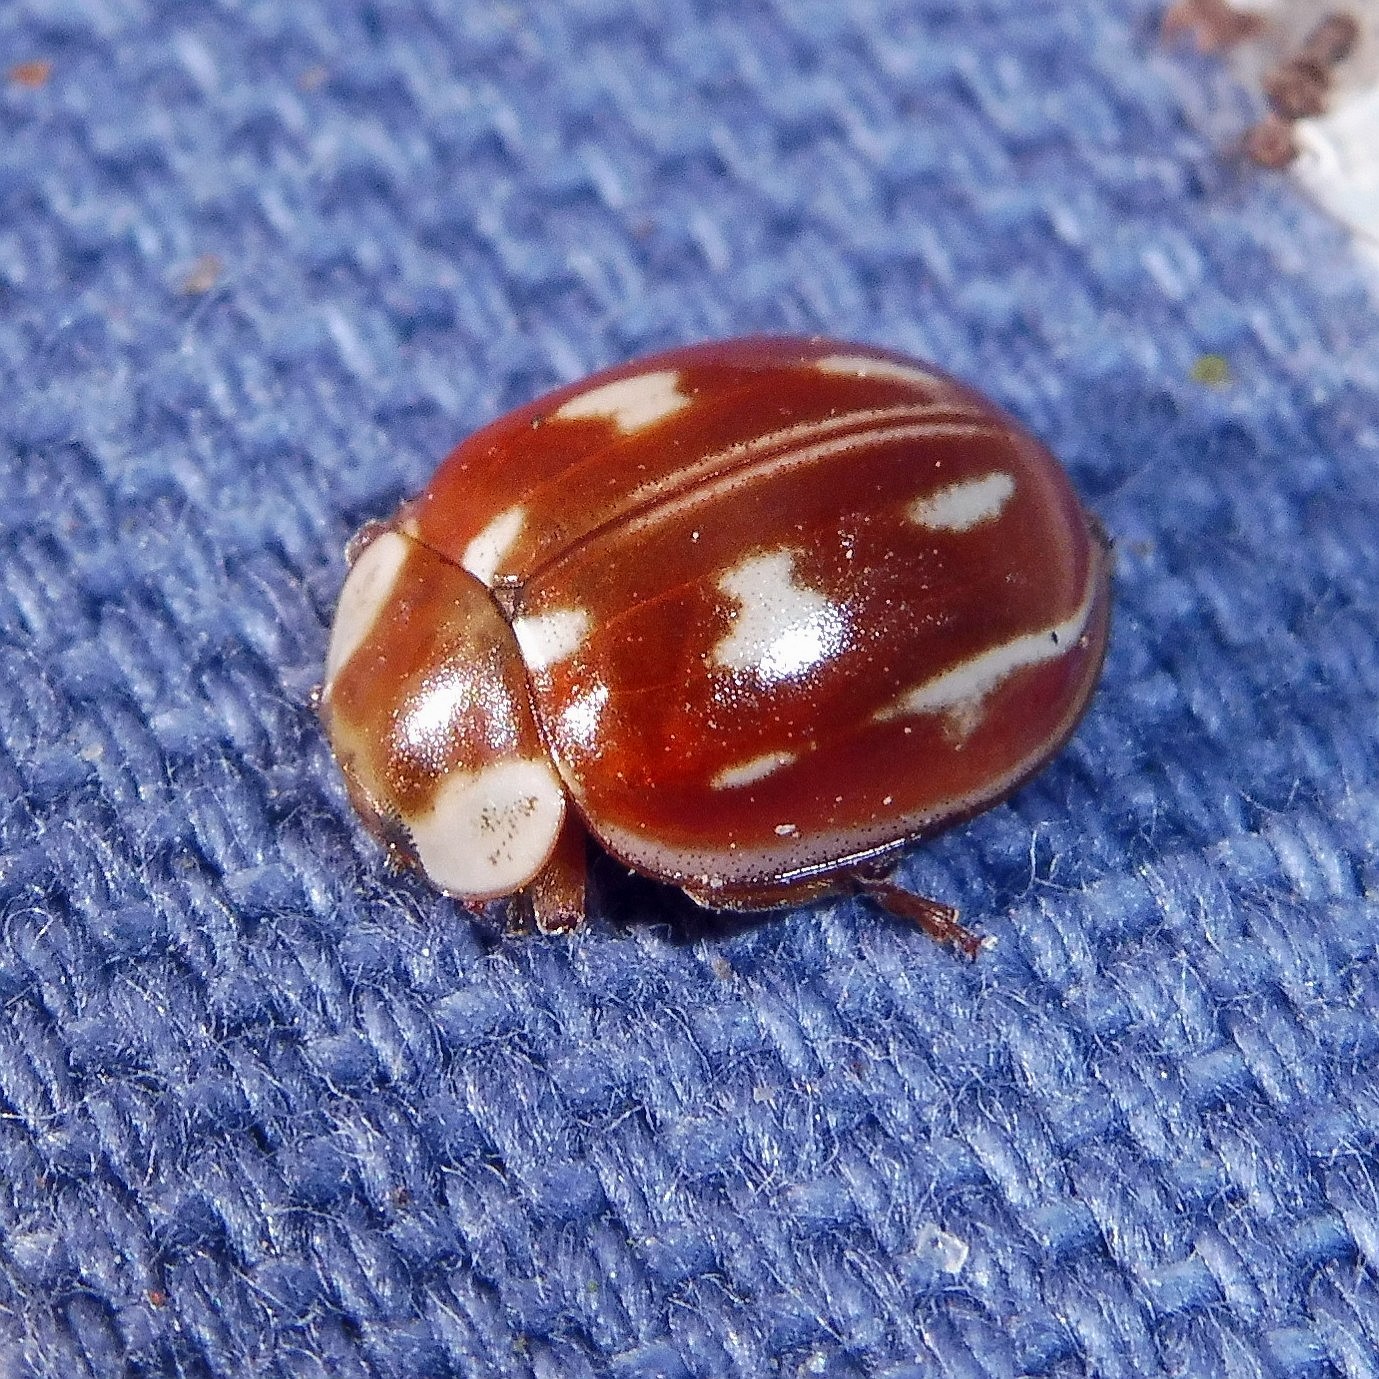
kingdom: Animalia
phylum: Arthropoda
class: Insecta
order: Coleoptera
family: Coccinellidae
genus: Myzia
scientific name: Myzia oblongoguttata
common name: Striped ladybird
